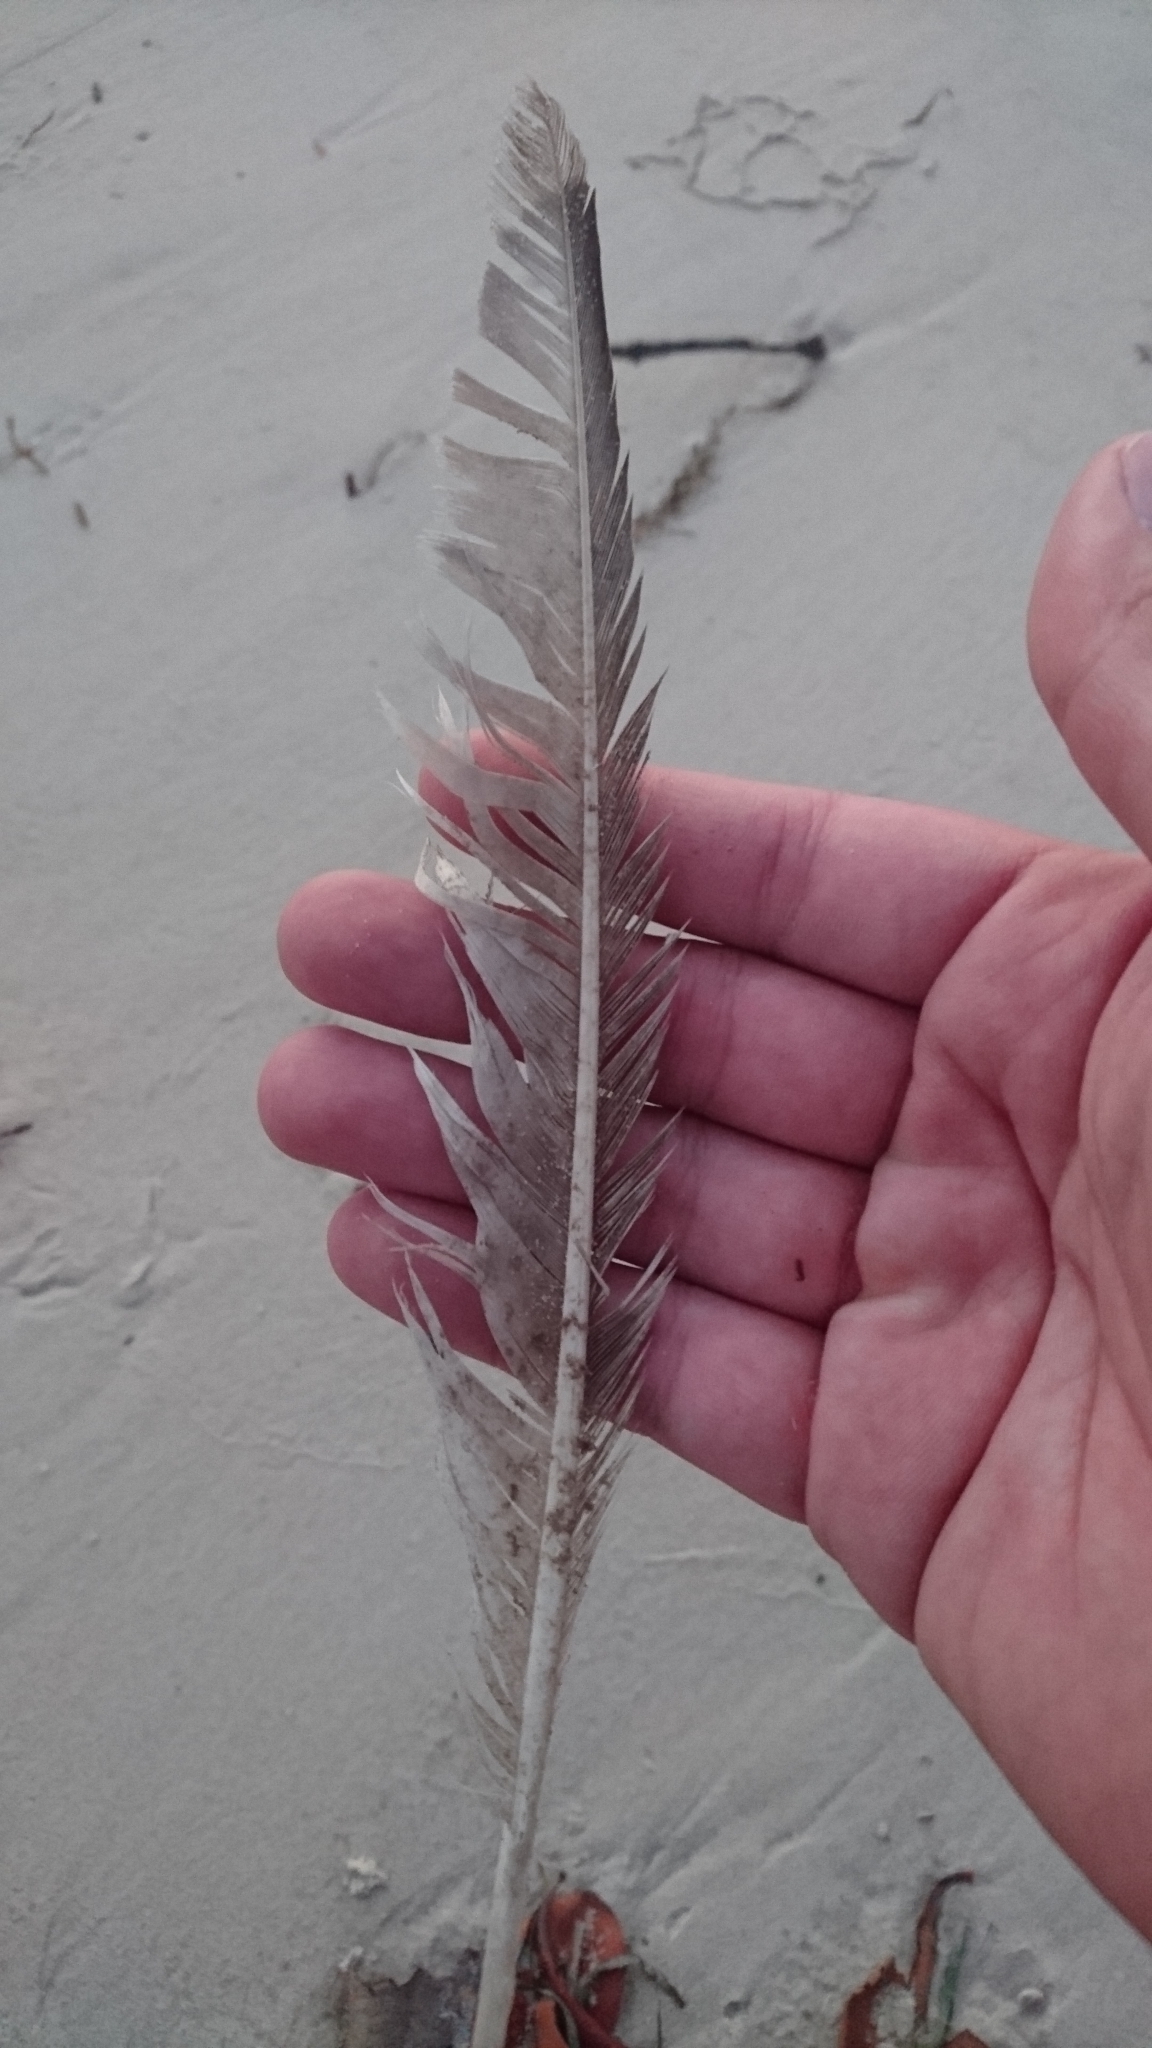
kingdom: Animalia
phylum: Chordata
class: Aves
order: Charadriiformes
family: Scolopacidae
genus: Numenius
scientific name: Numenius phaeopus
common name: Whimbrel
